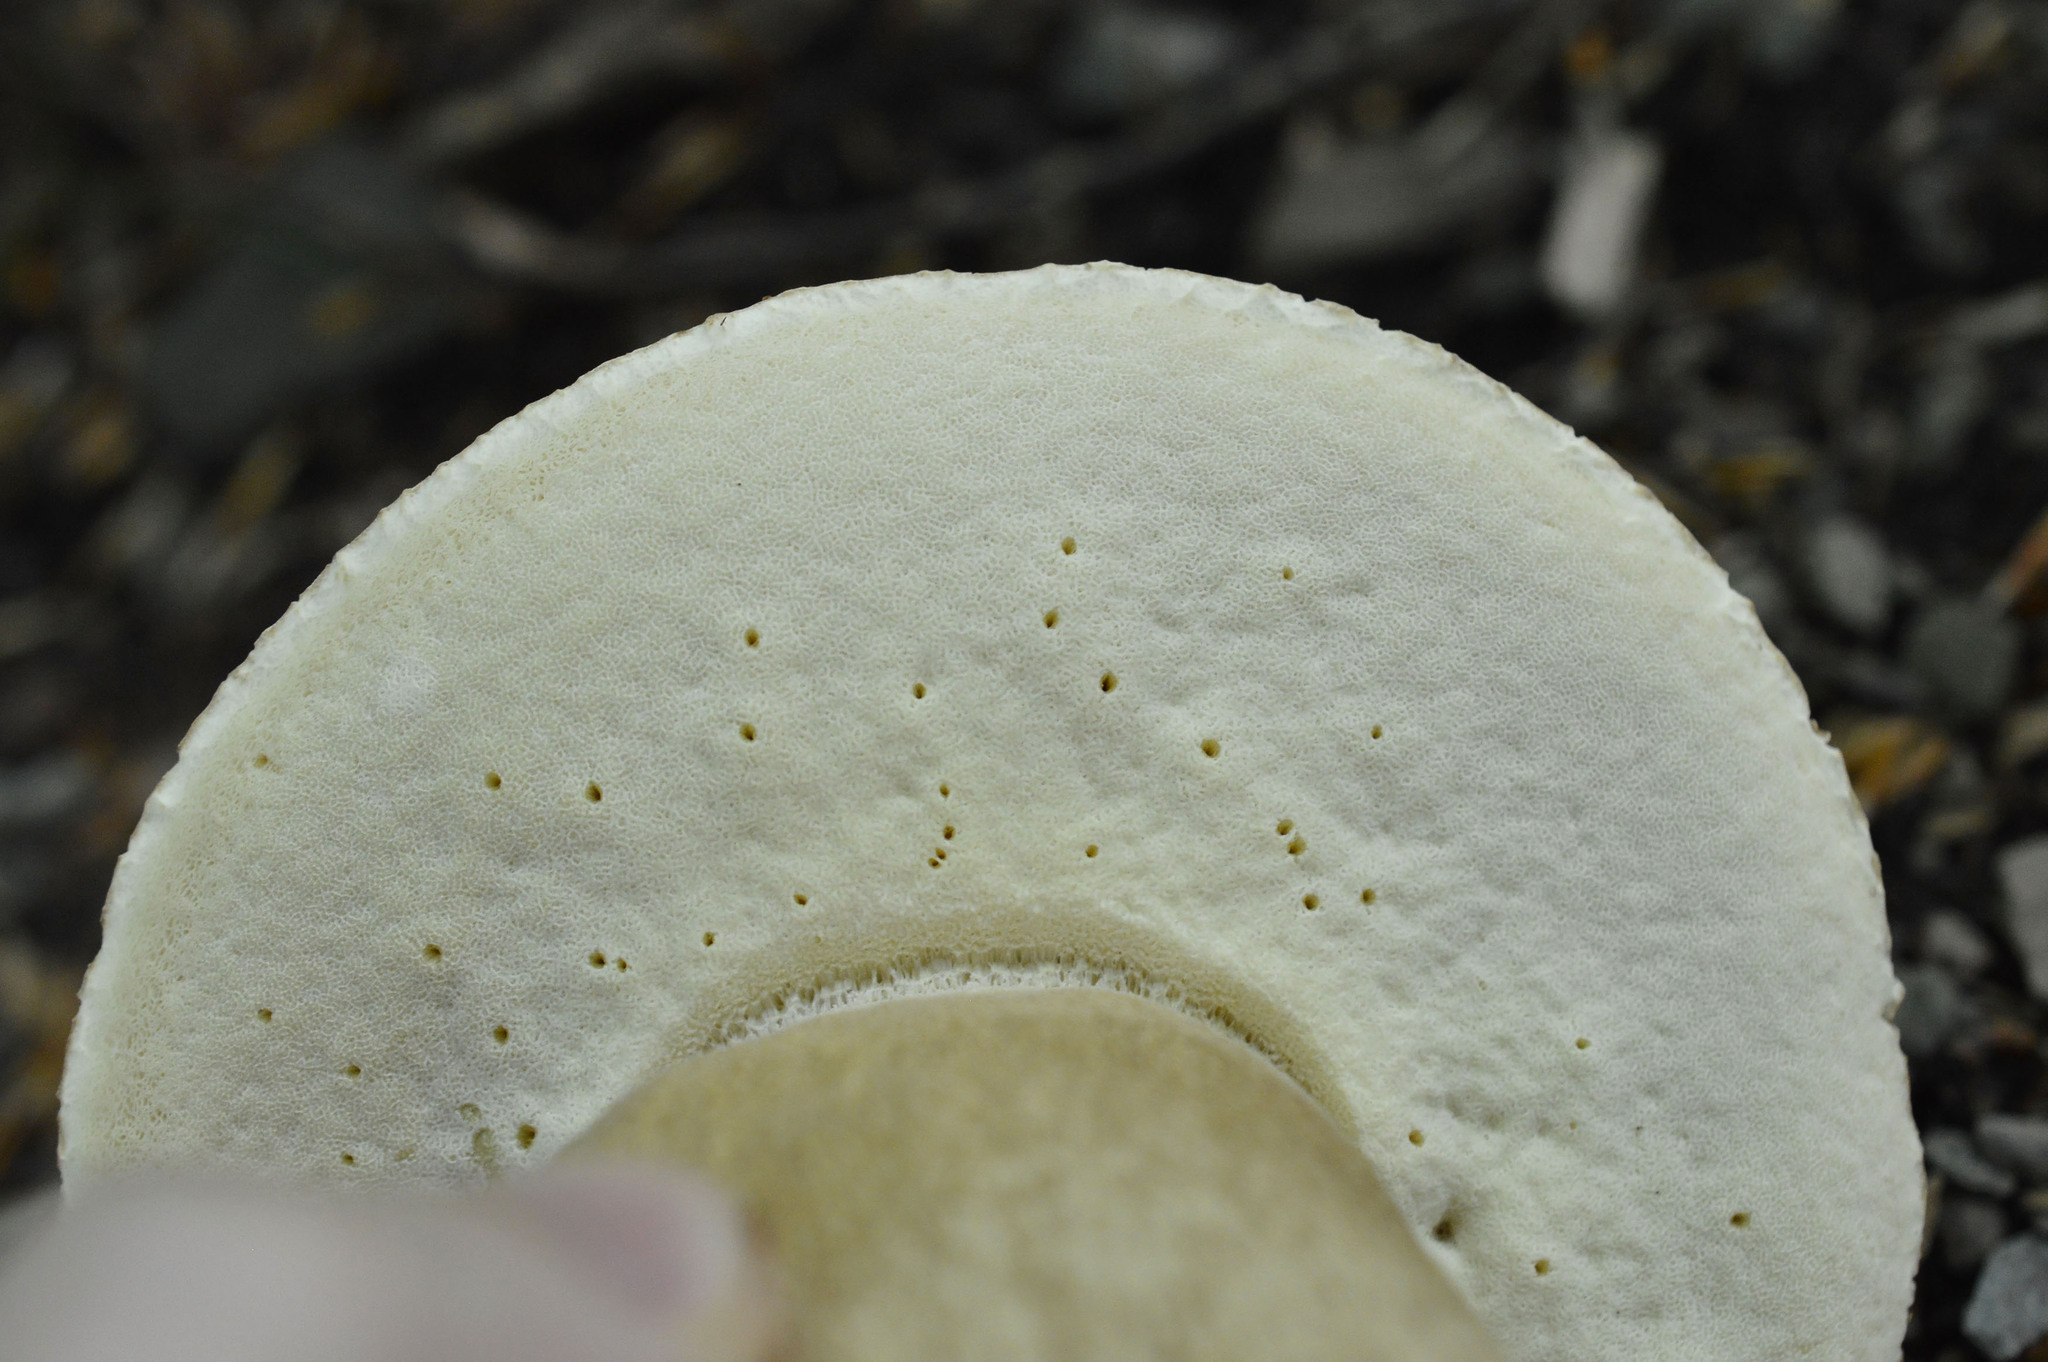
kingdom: Fungi
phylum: Basidiomycota
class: Agaricomycetes
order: Boletales
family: Boletaceae
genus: Boletus
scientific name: Boletus reticulatus
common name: Summer bolete
